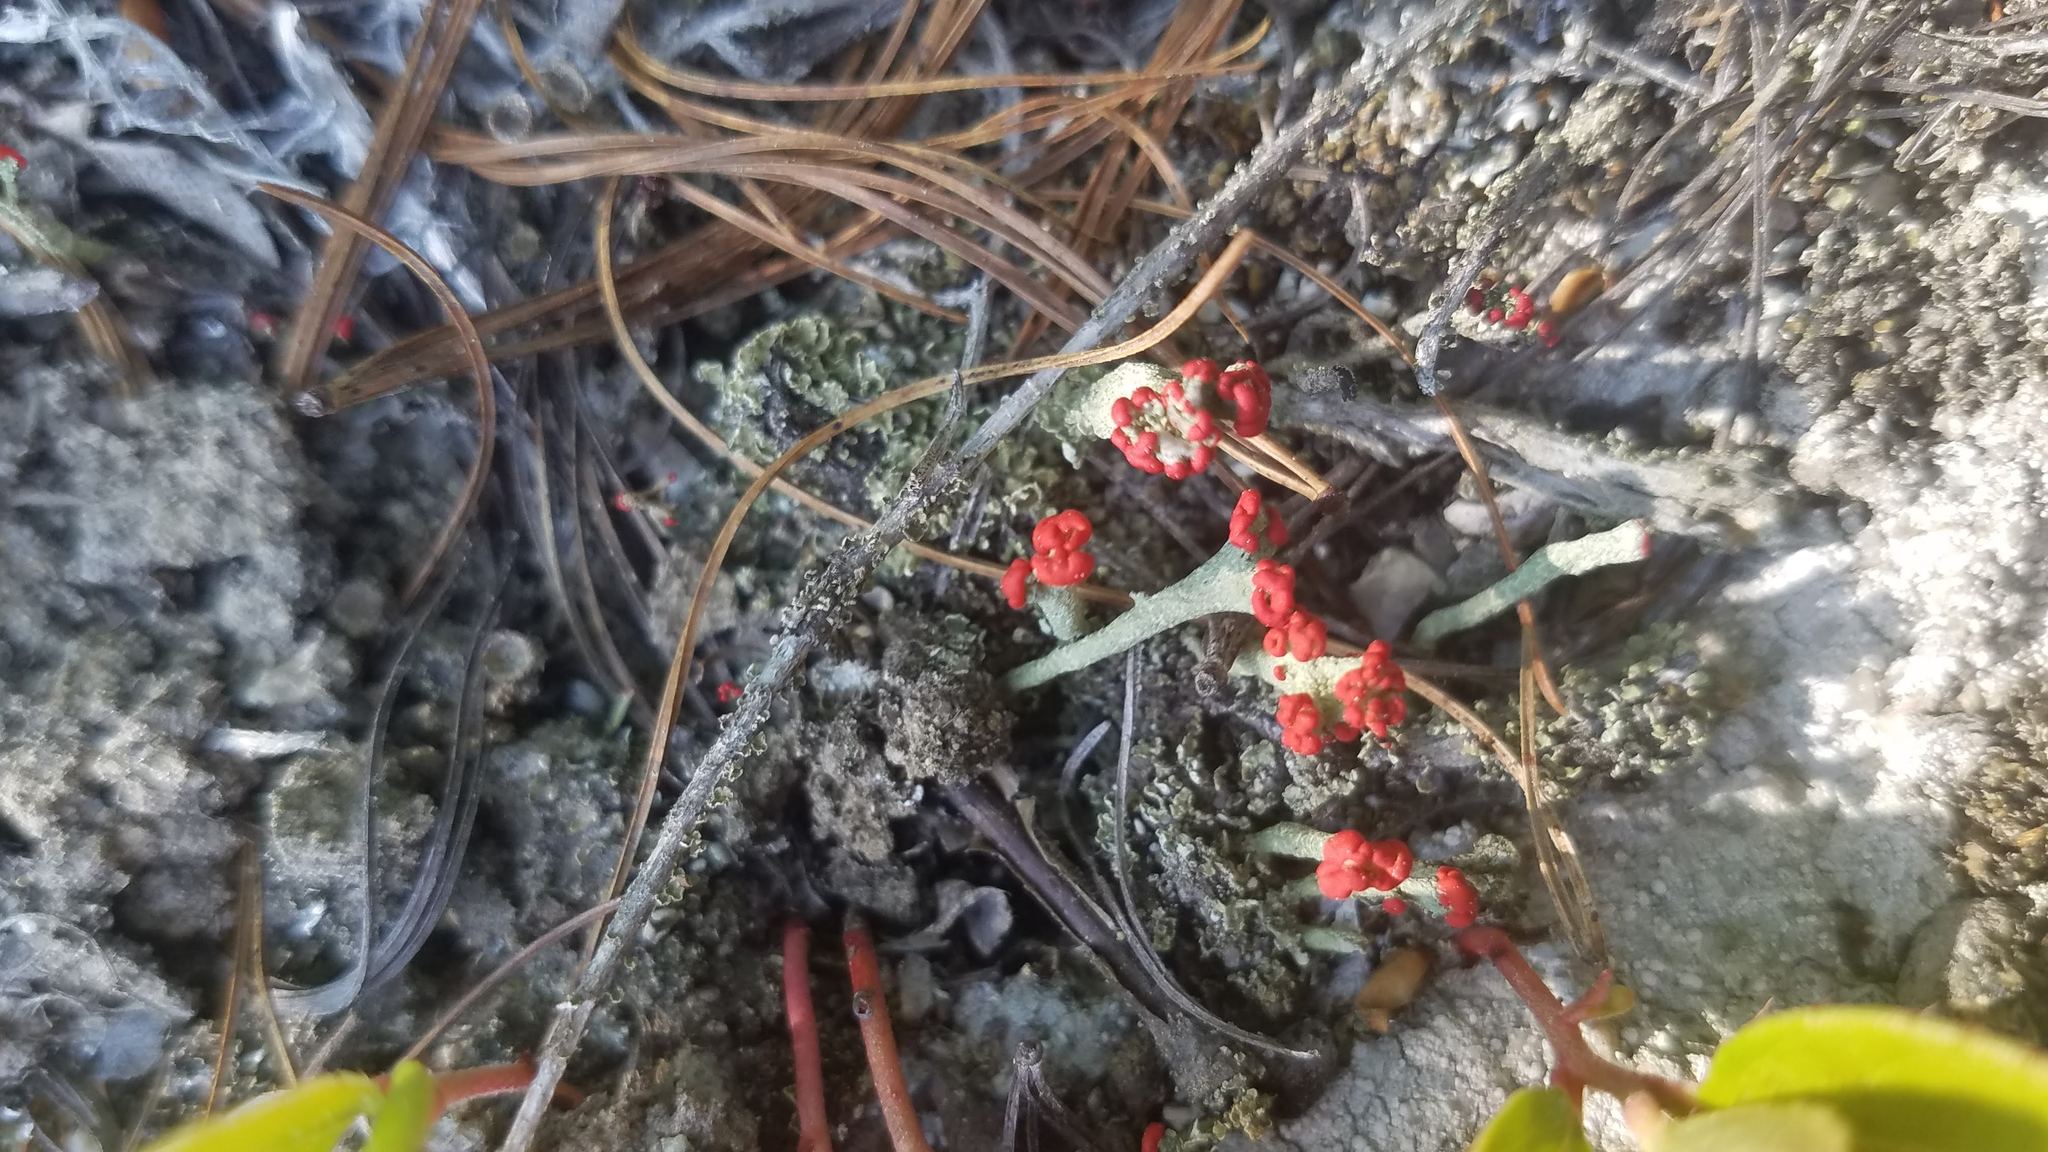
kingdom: Fungi
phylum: Ascomycota
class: Lecanoromycetes
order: Lecanorales
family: Cladoniaceae
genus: Cladonia
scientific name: Cladonia cristatella
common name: British soldier lichen
